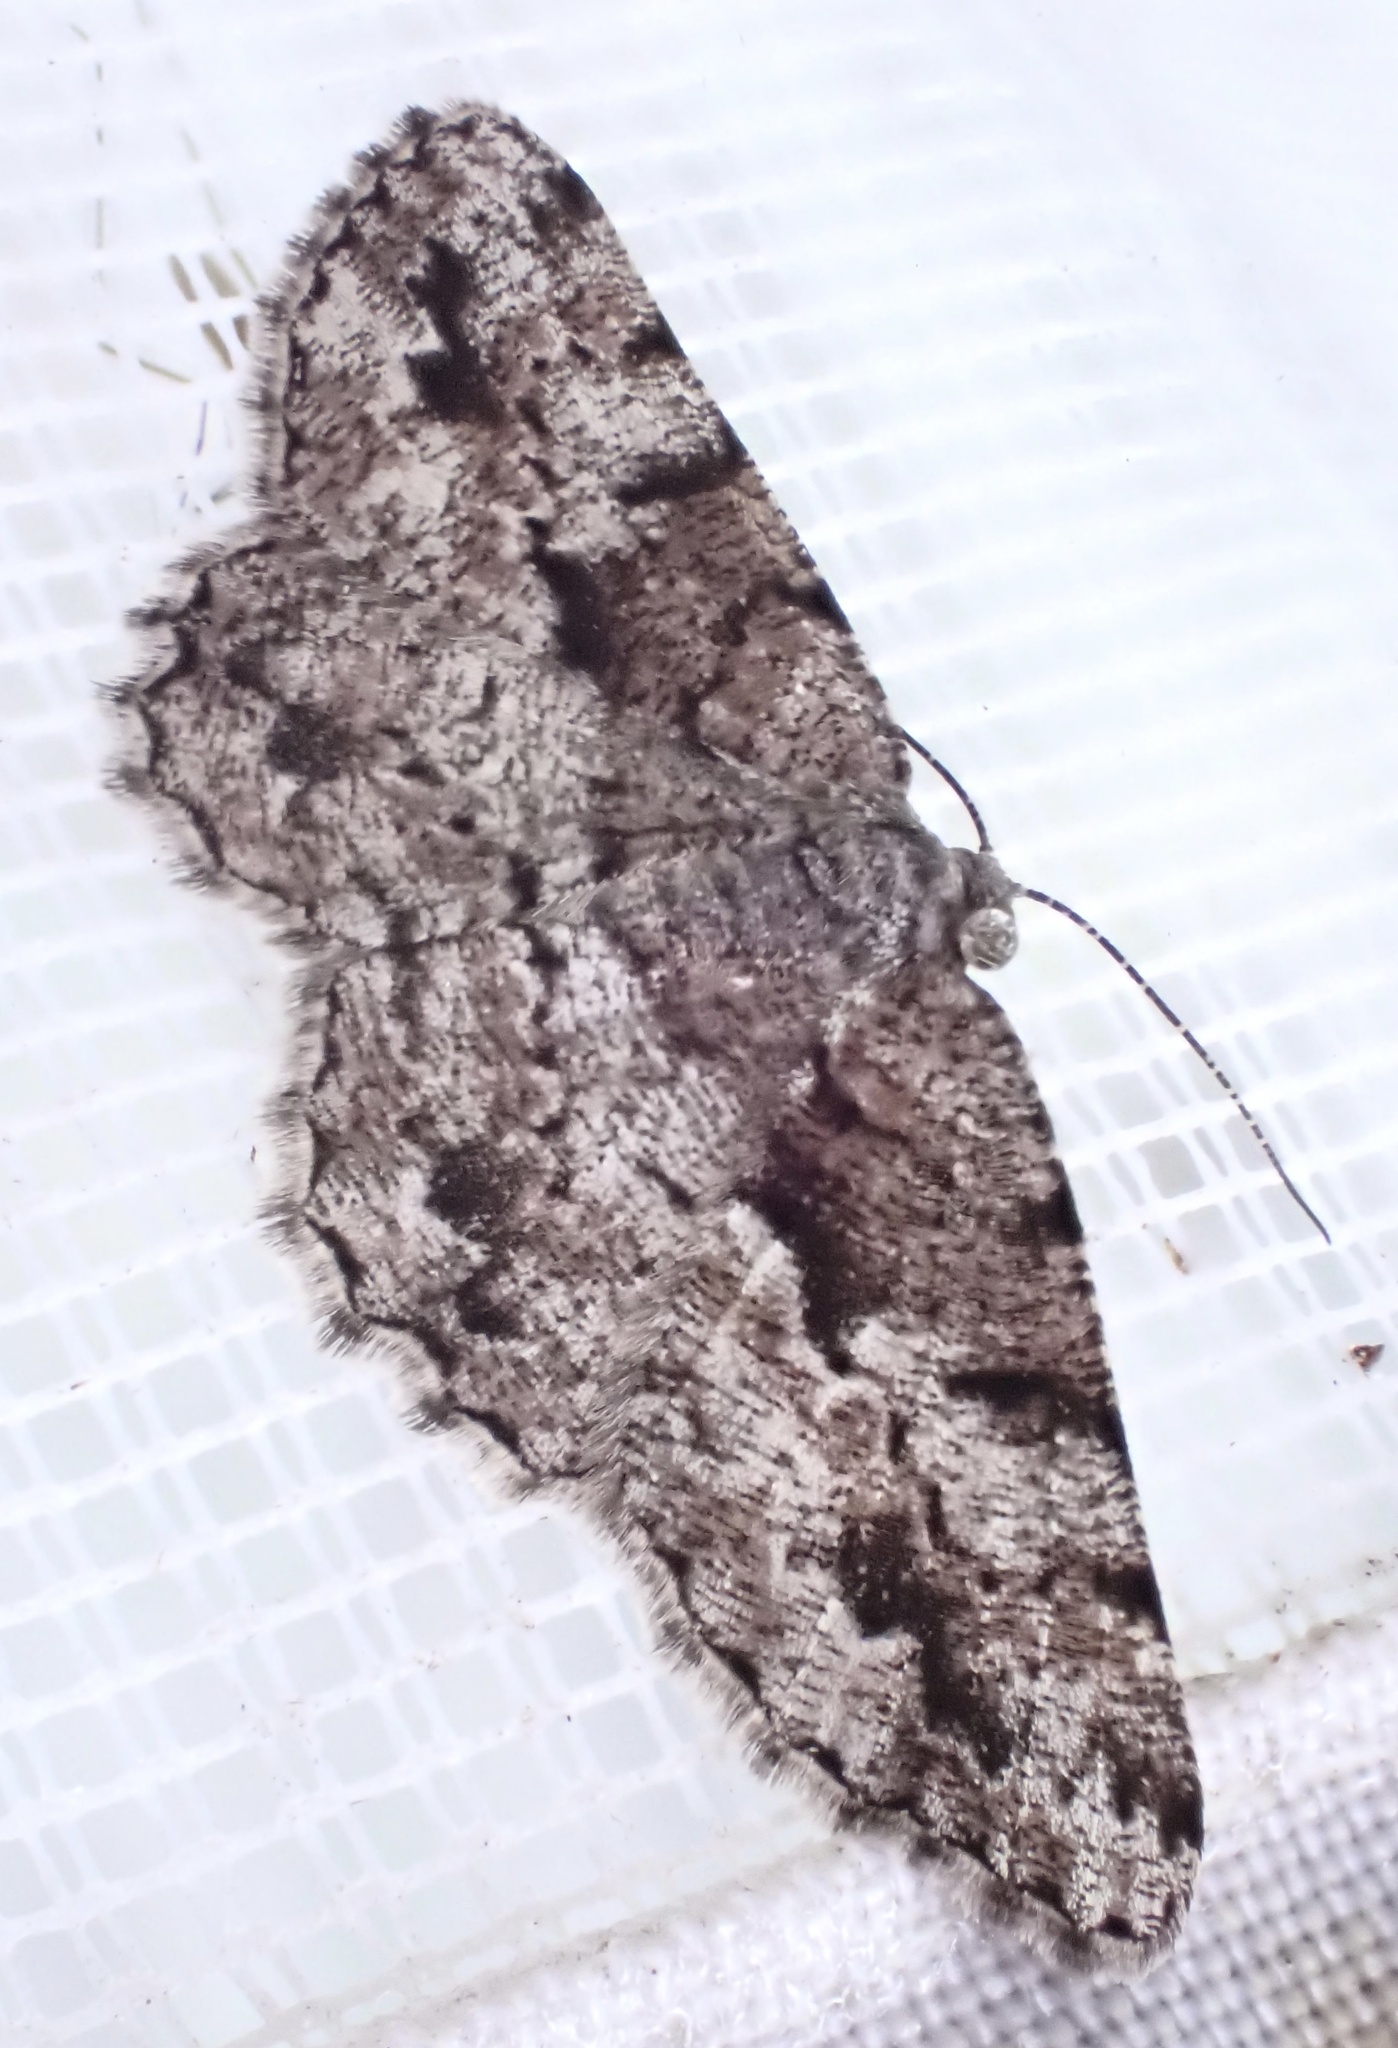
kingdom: Animalia
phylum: Arthropoda
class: Insecta
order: Lepidoptera
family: Geometridae
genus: Hypomecis
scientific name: Hypomecis externaria
